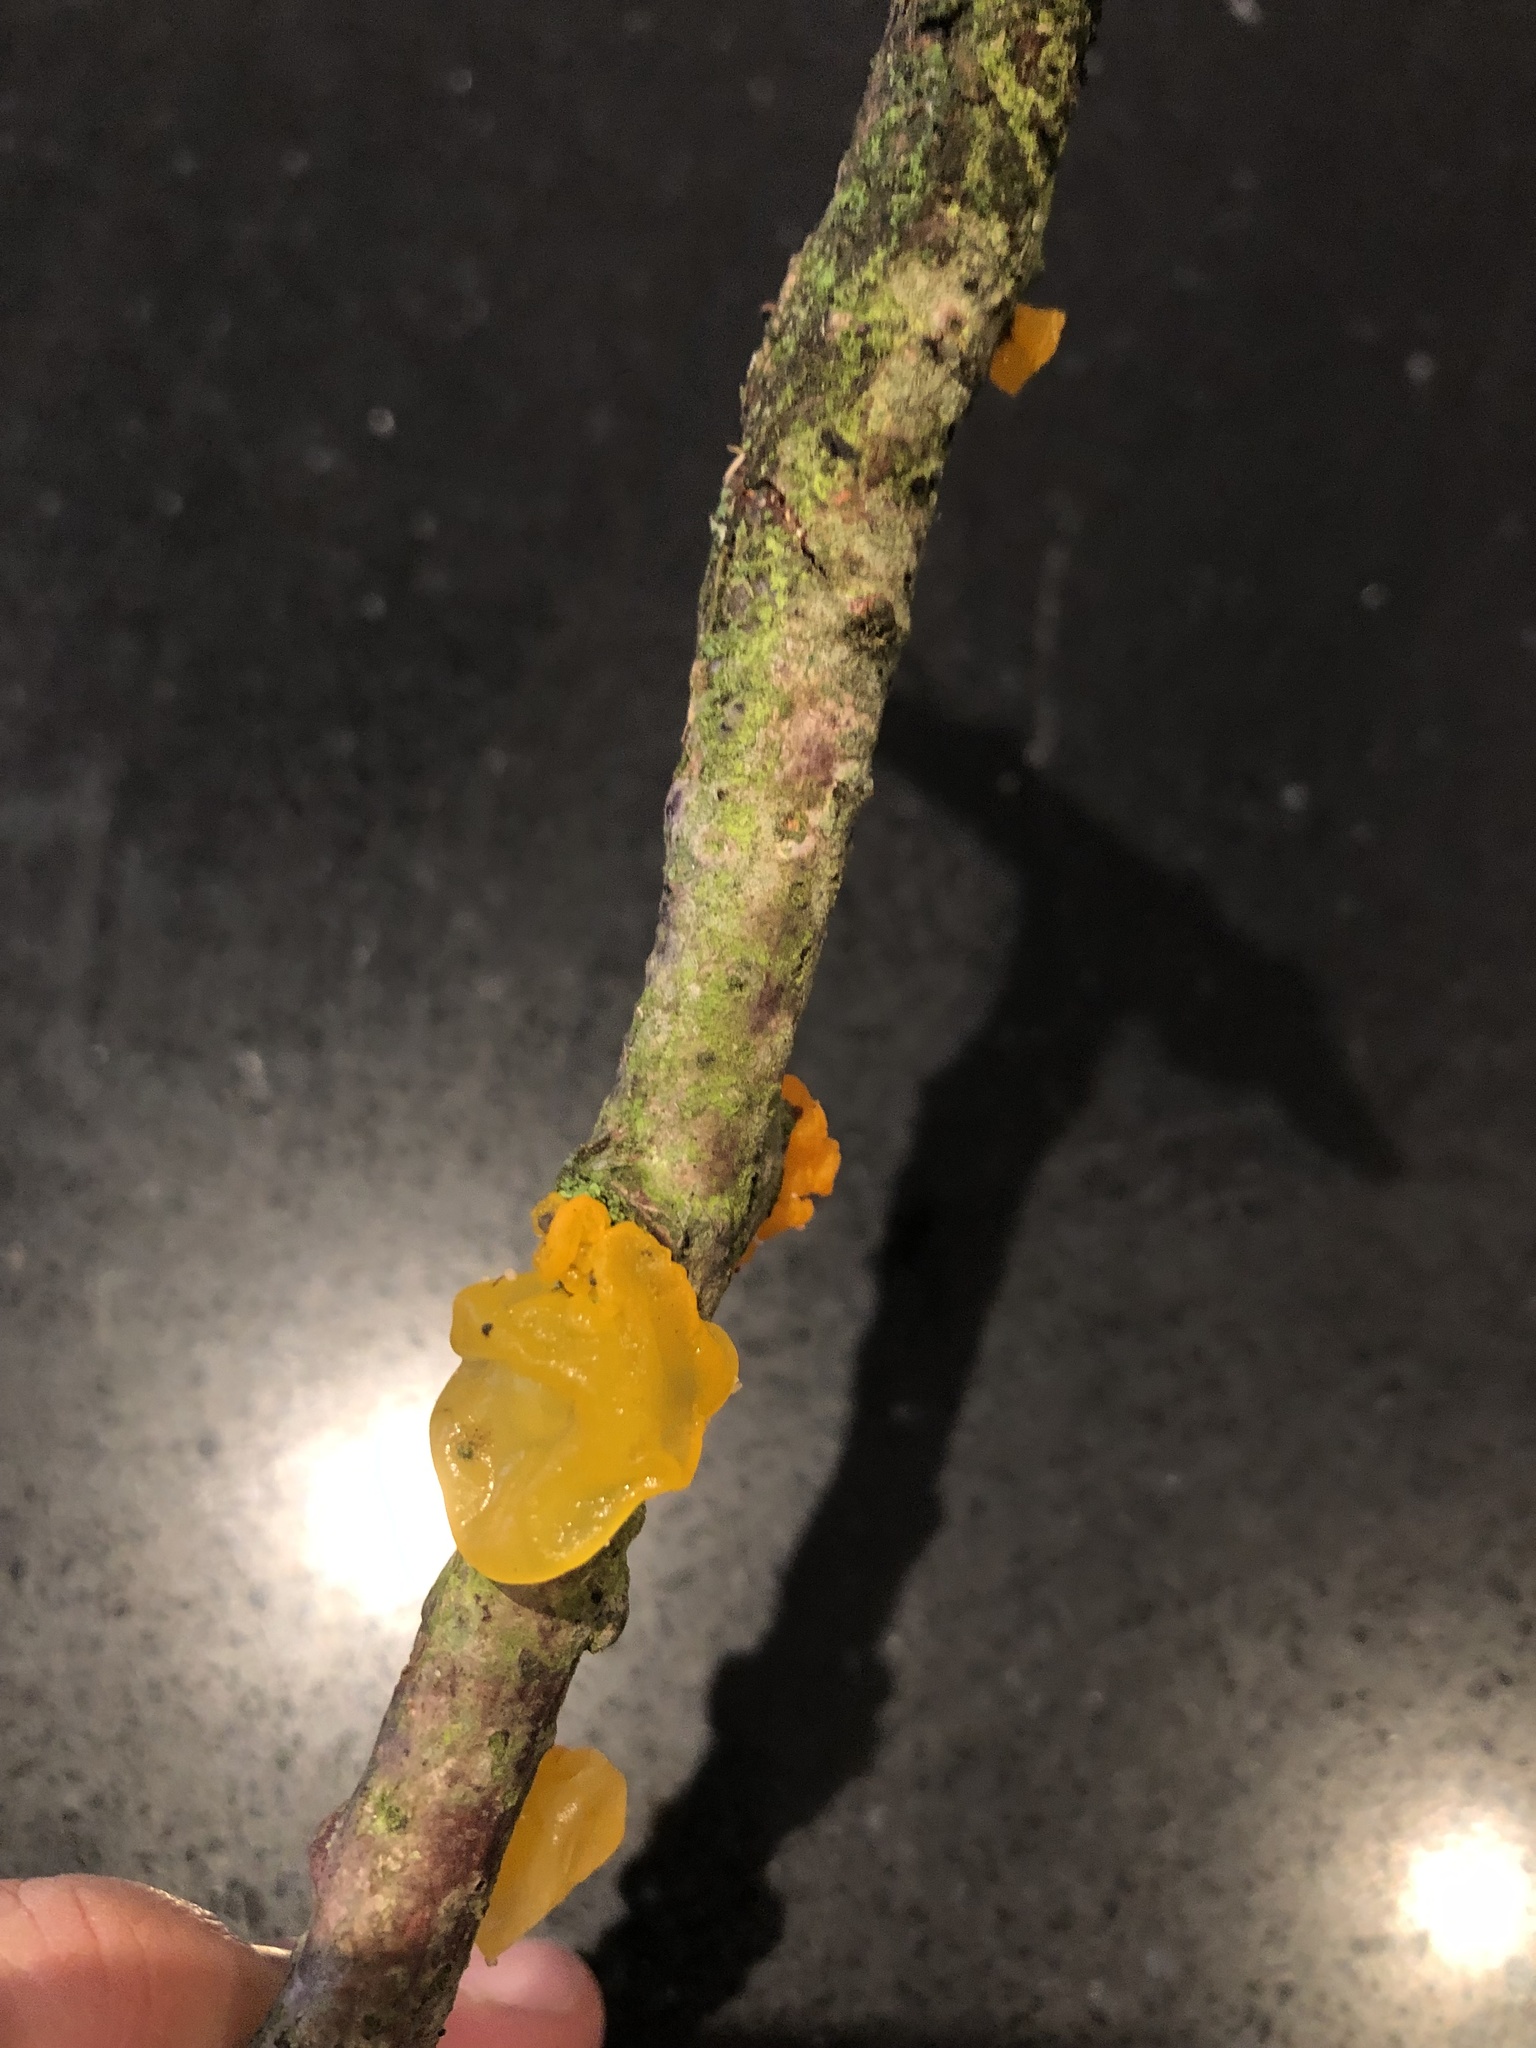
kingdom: Fungi
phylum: Basidiomycota
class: Tremellomycetes
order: Tremellales
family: Tremellaceae
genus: Tremella
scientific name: Tremella mesenterica
